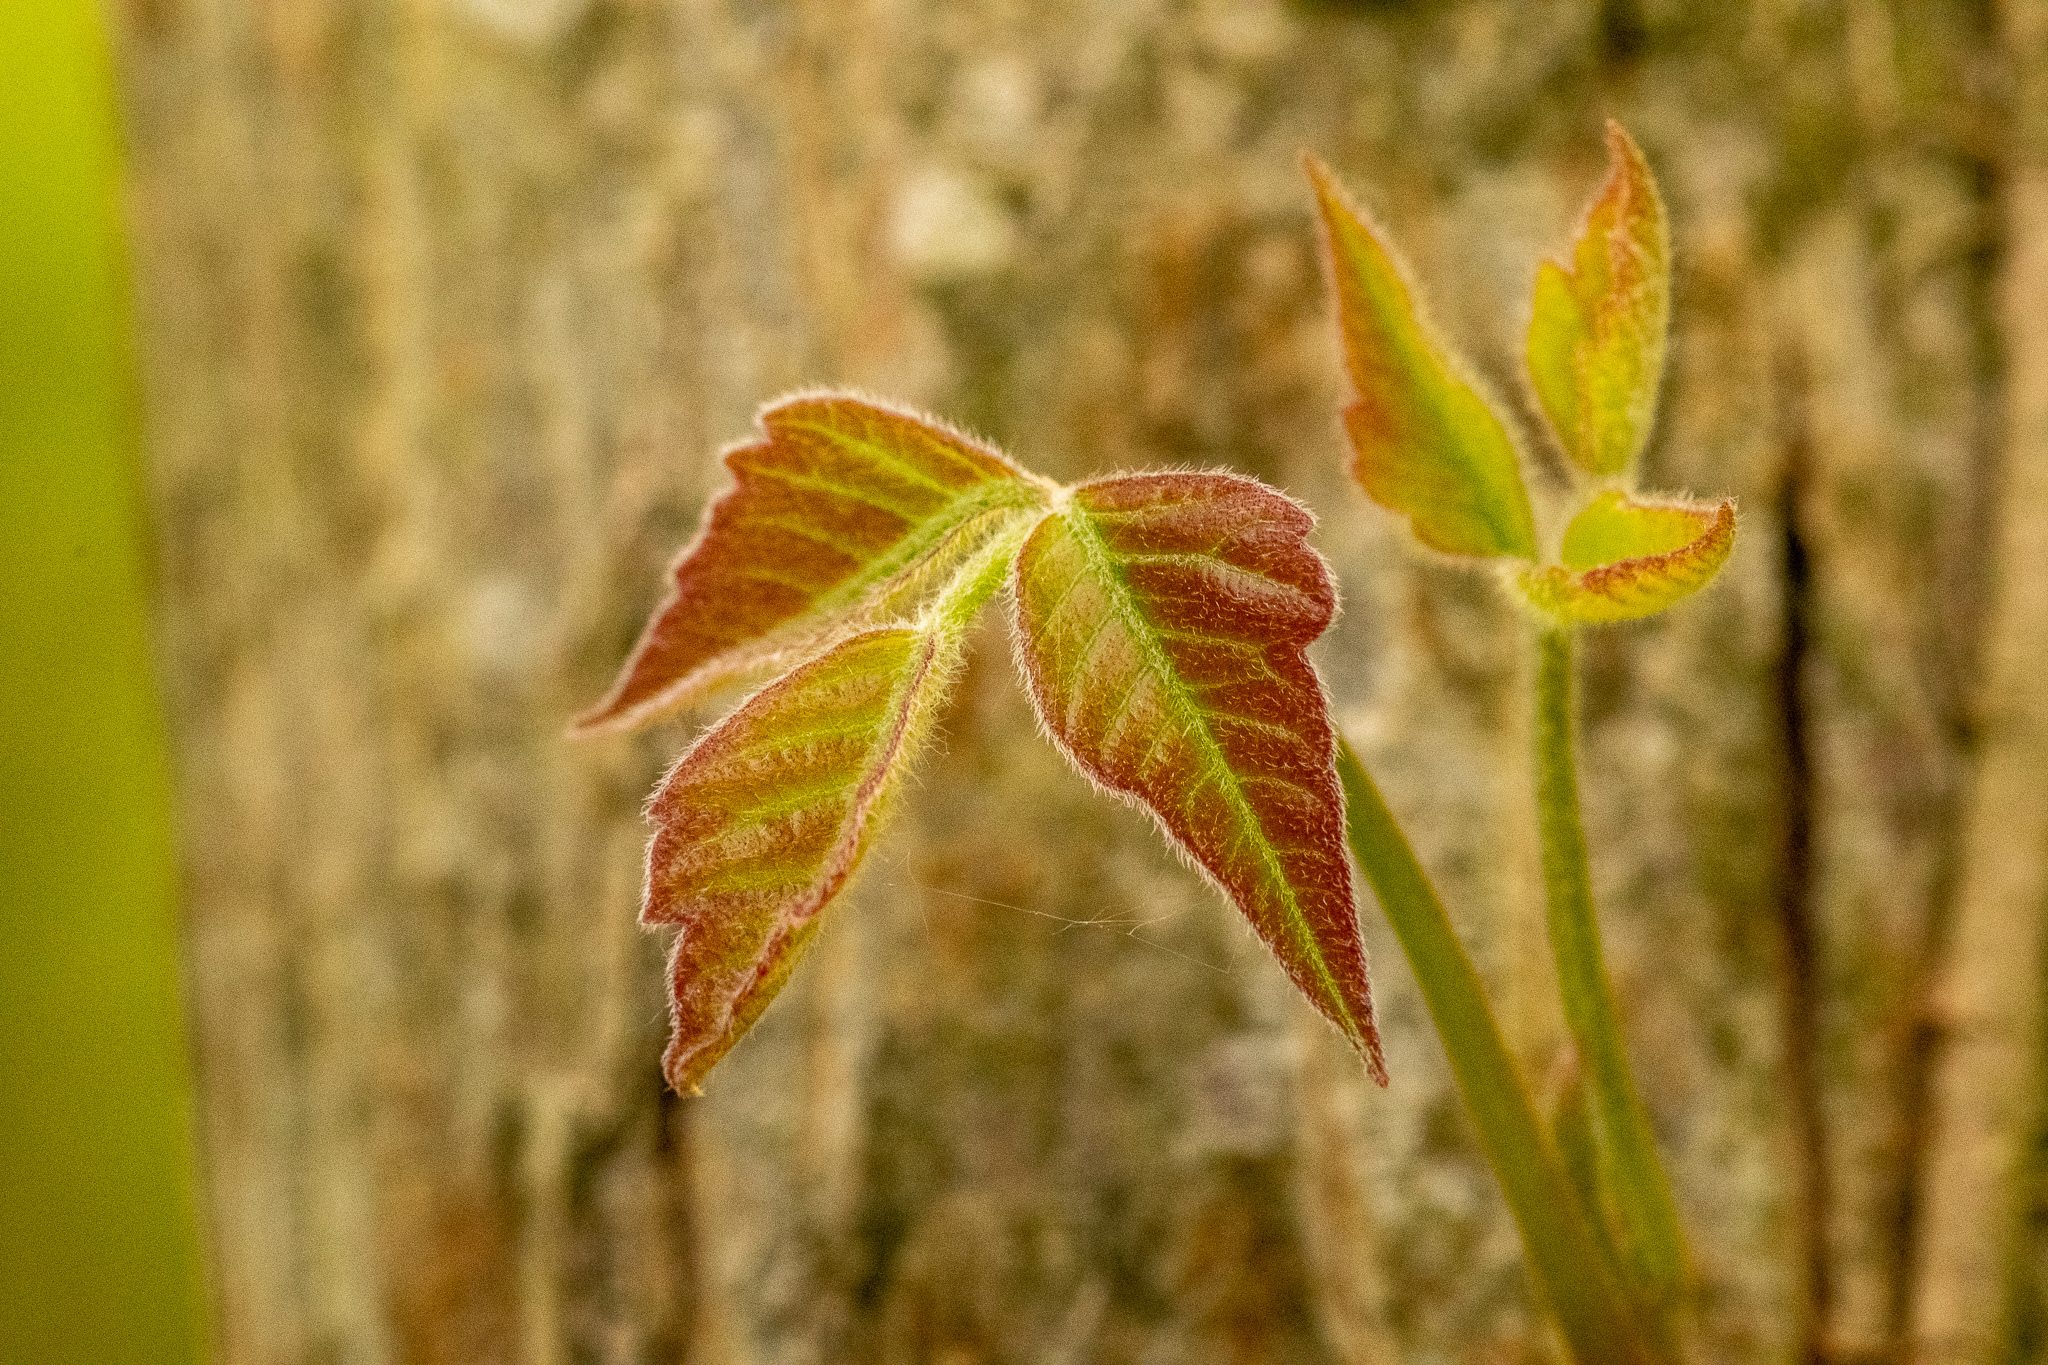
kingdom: Plantae
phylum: Tracheophyta
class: Magnoliopsida
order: Sapindales
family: Anacardiaceae
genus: Toxicodendron
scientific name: Toxicodendron radicans
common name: Poison ivy
